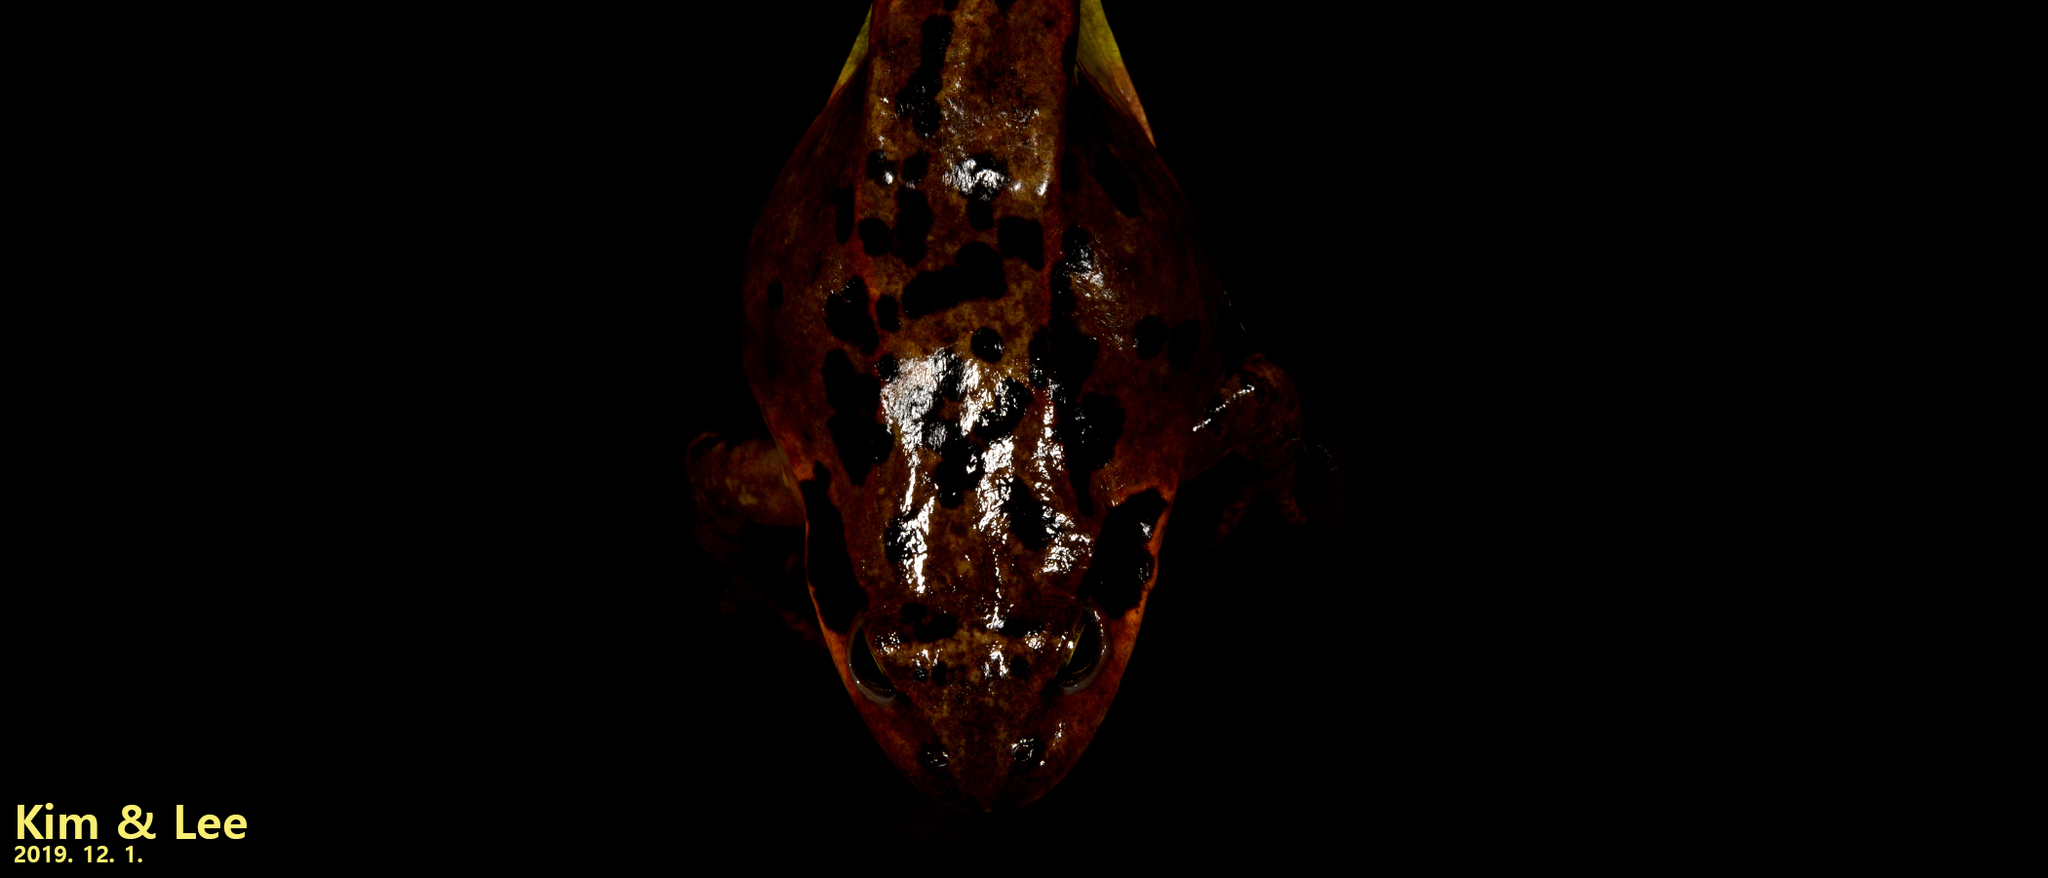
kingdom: Animalia
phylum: Chordata
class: Amphibia
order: Anura
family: Ranidae
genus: Rana
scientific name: Rana dybowskii
